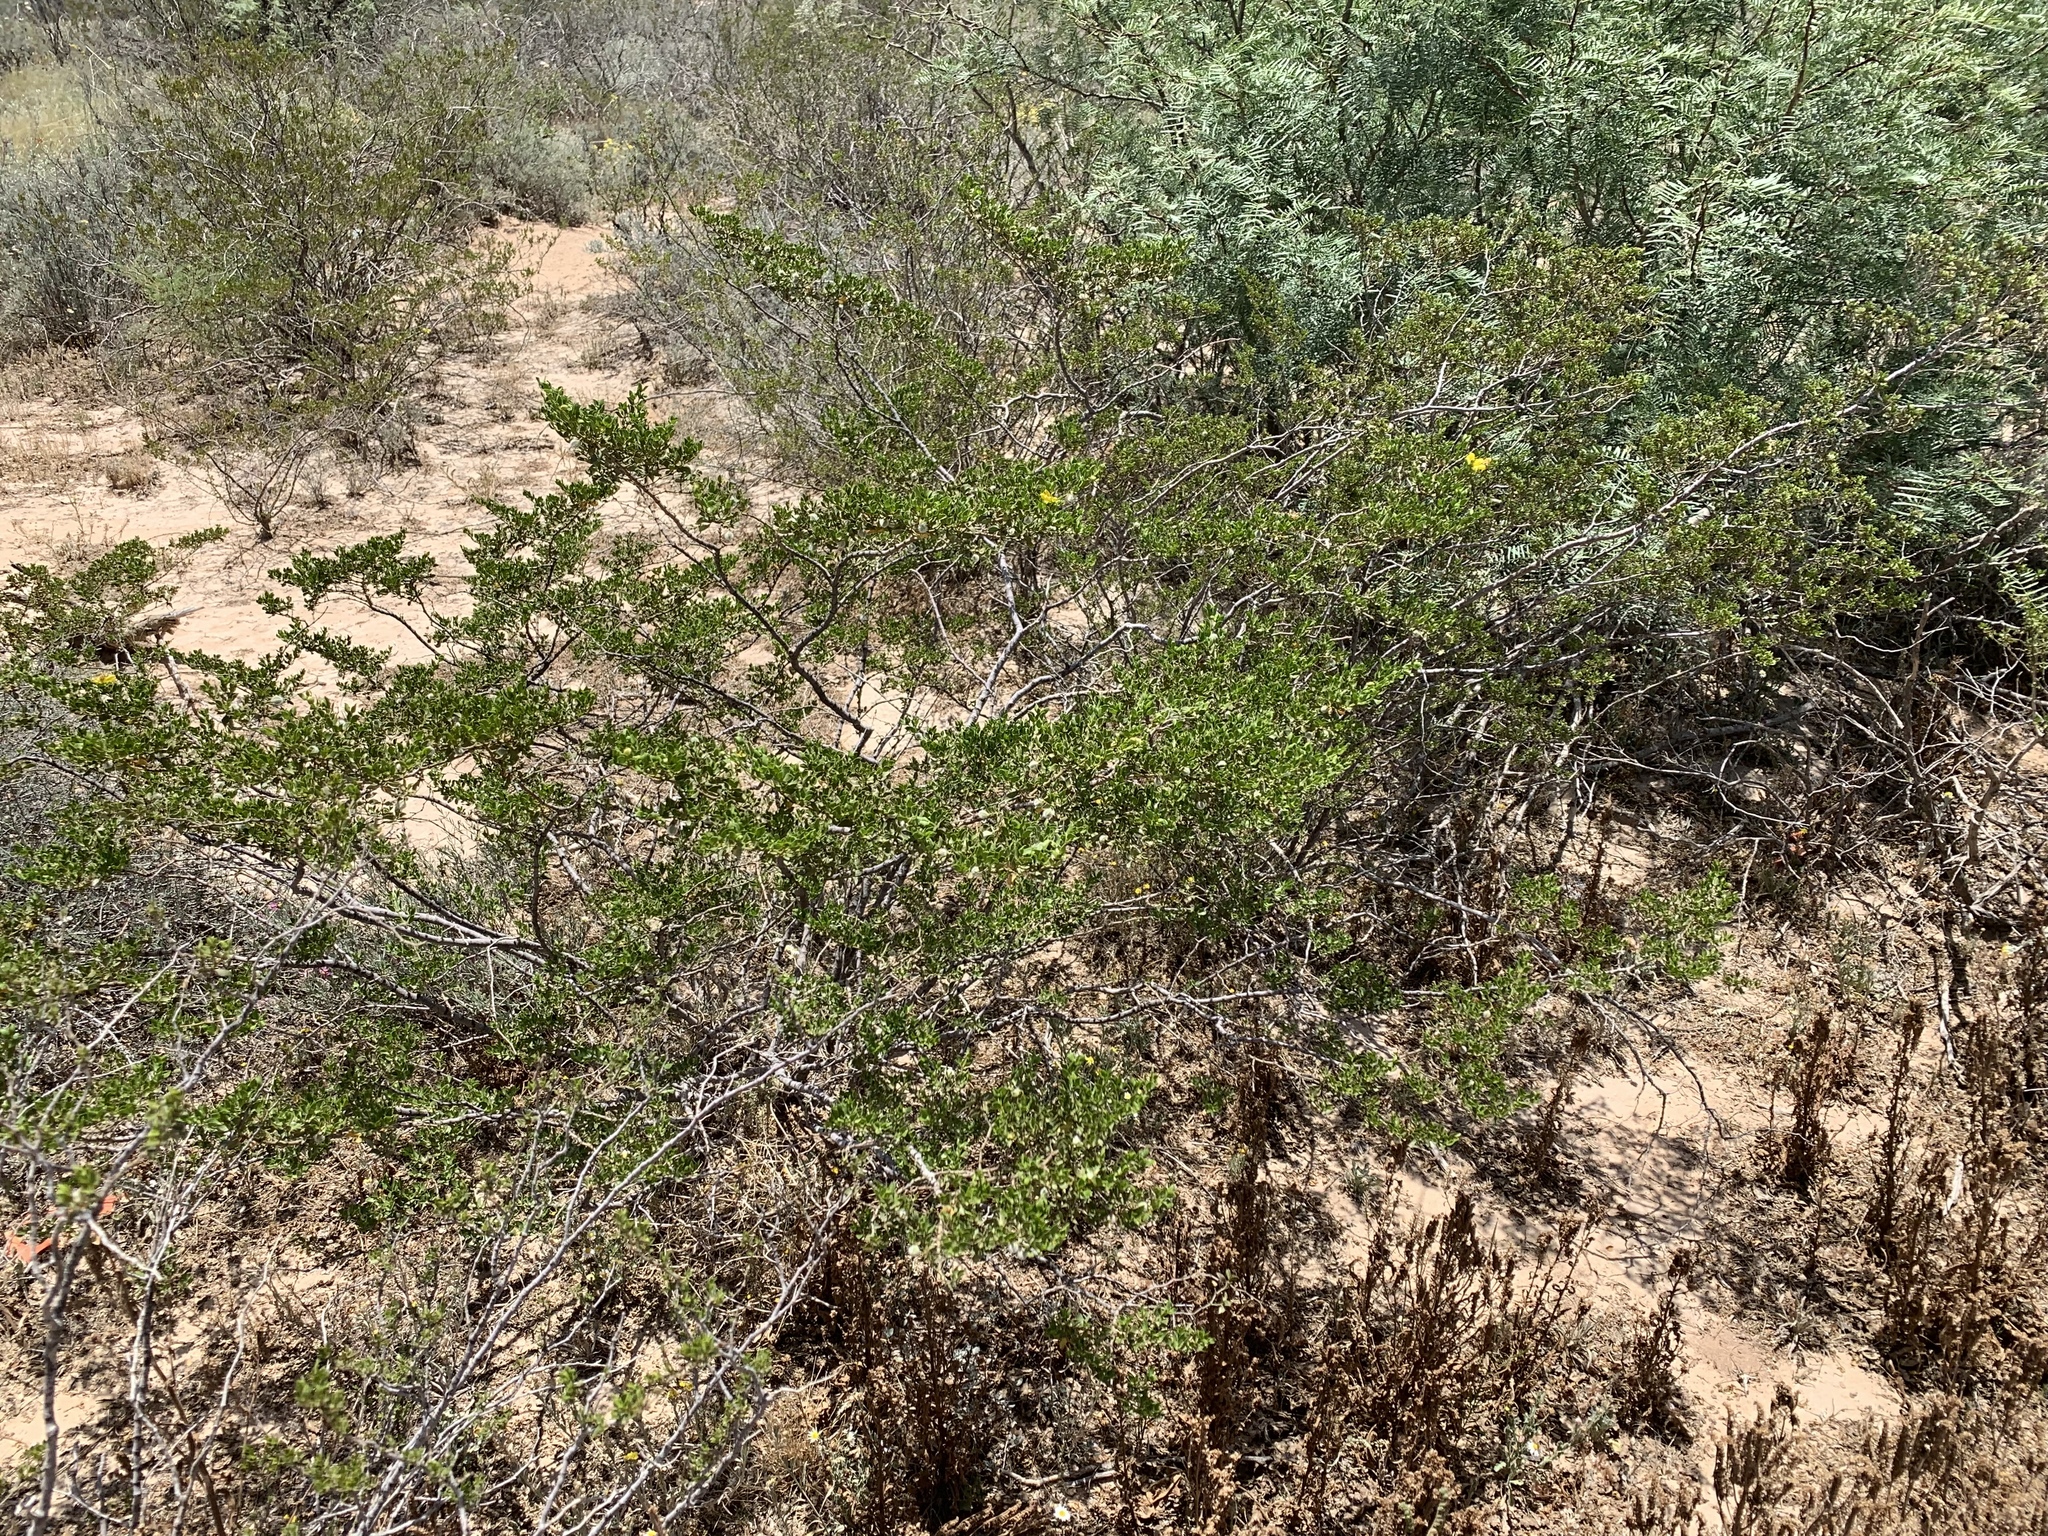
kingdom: Plantae
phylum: Tracheophyta
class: Magnoliopsida
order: Zygophyllales
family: Zygophyllaceae
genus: Larrea
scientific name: Larrea tridentata
